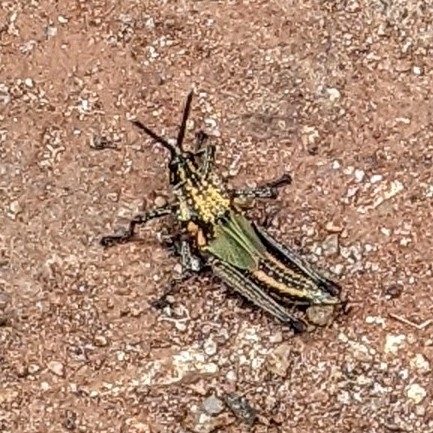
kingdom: Animalia
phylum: Arthropoda
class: Insecta
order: Orthoptera
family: Pyrgomorphidae
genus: Taphronota
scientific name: Taphronota calliparea
